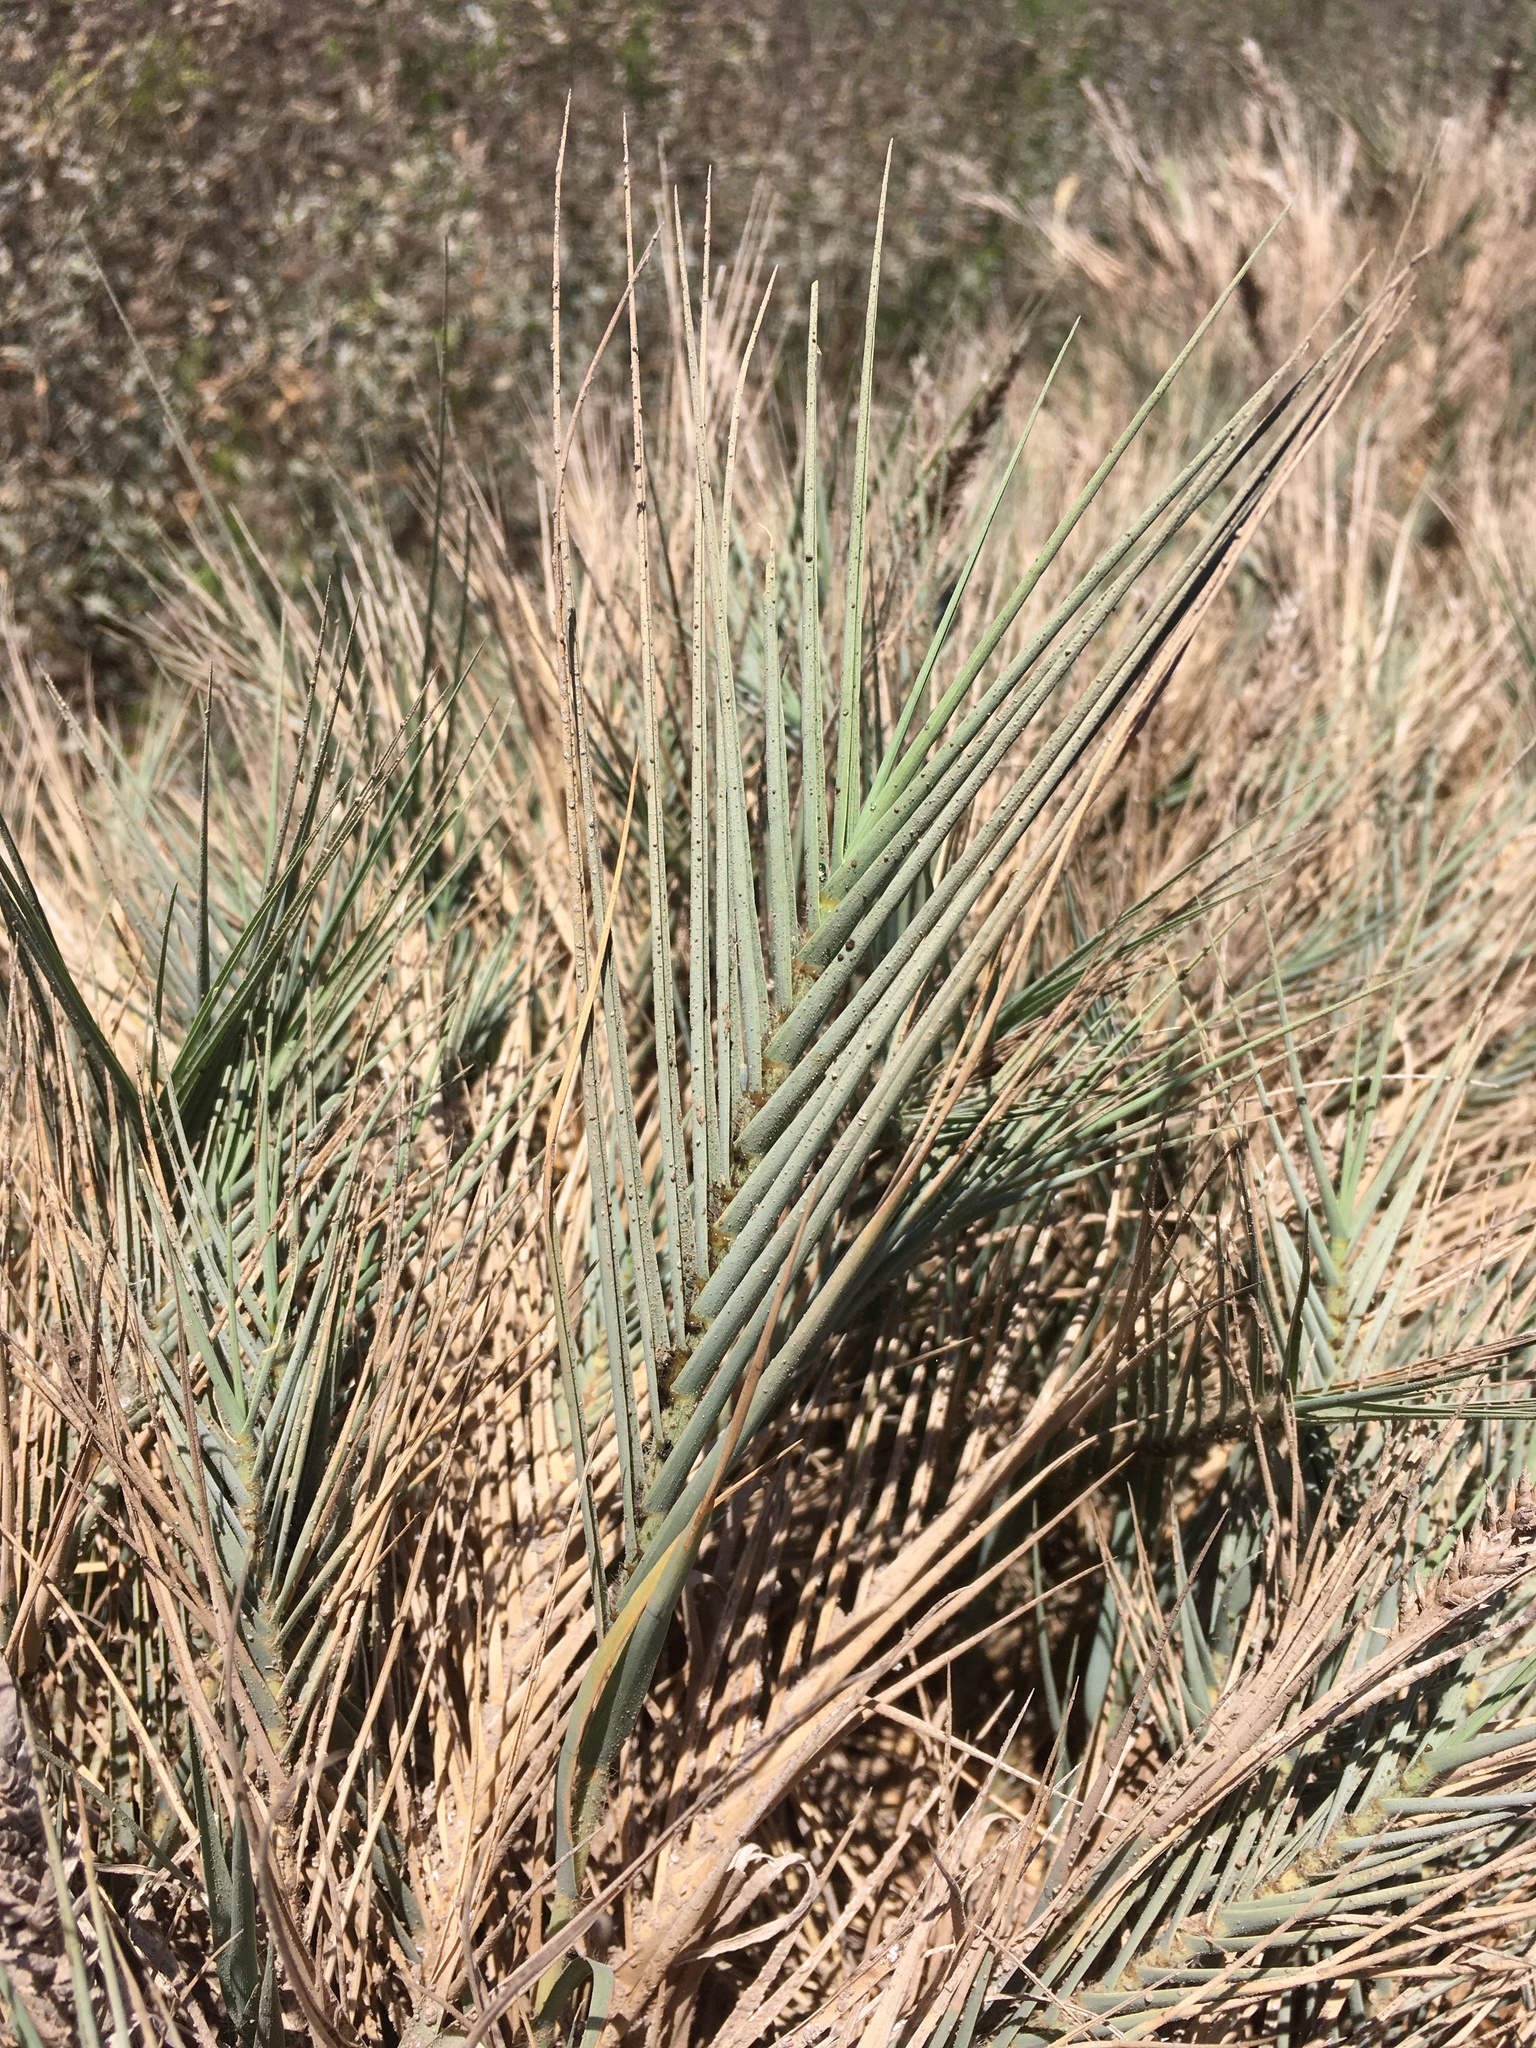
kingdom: Plantae
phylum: Tracheophyta
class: Liliopsida
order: Poales
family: Poaceae
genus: Distichlis
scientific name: Distichlis spicata
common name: Saltgrass
